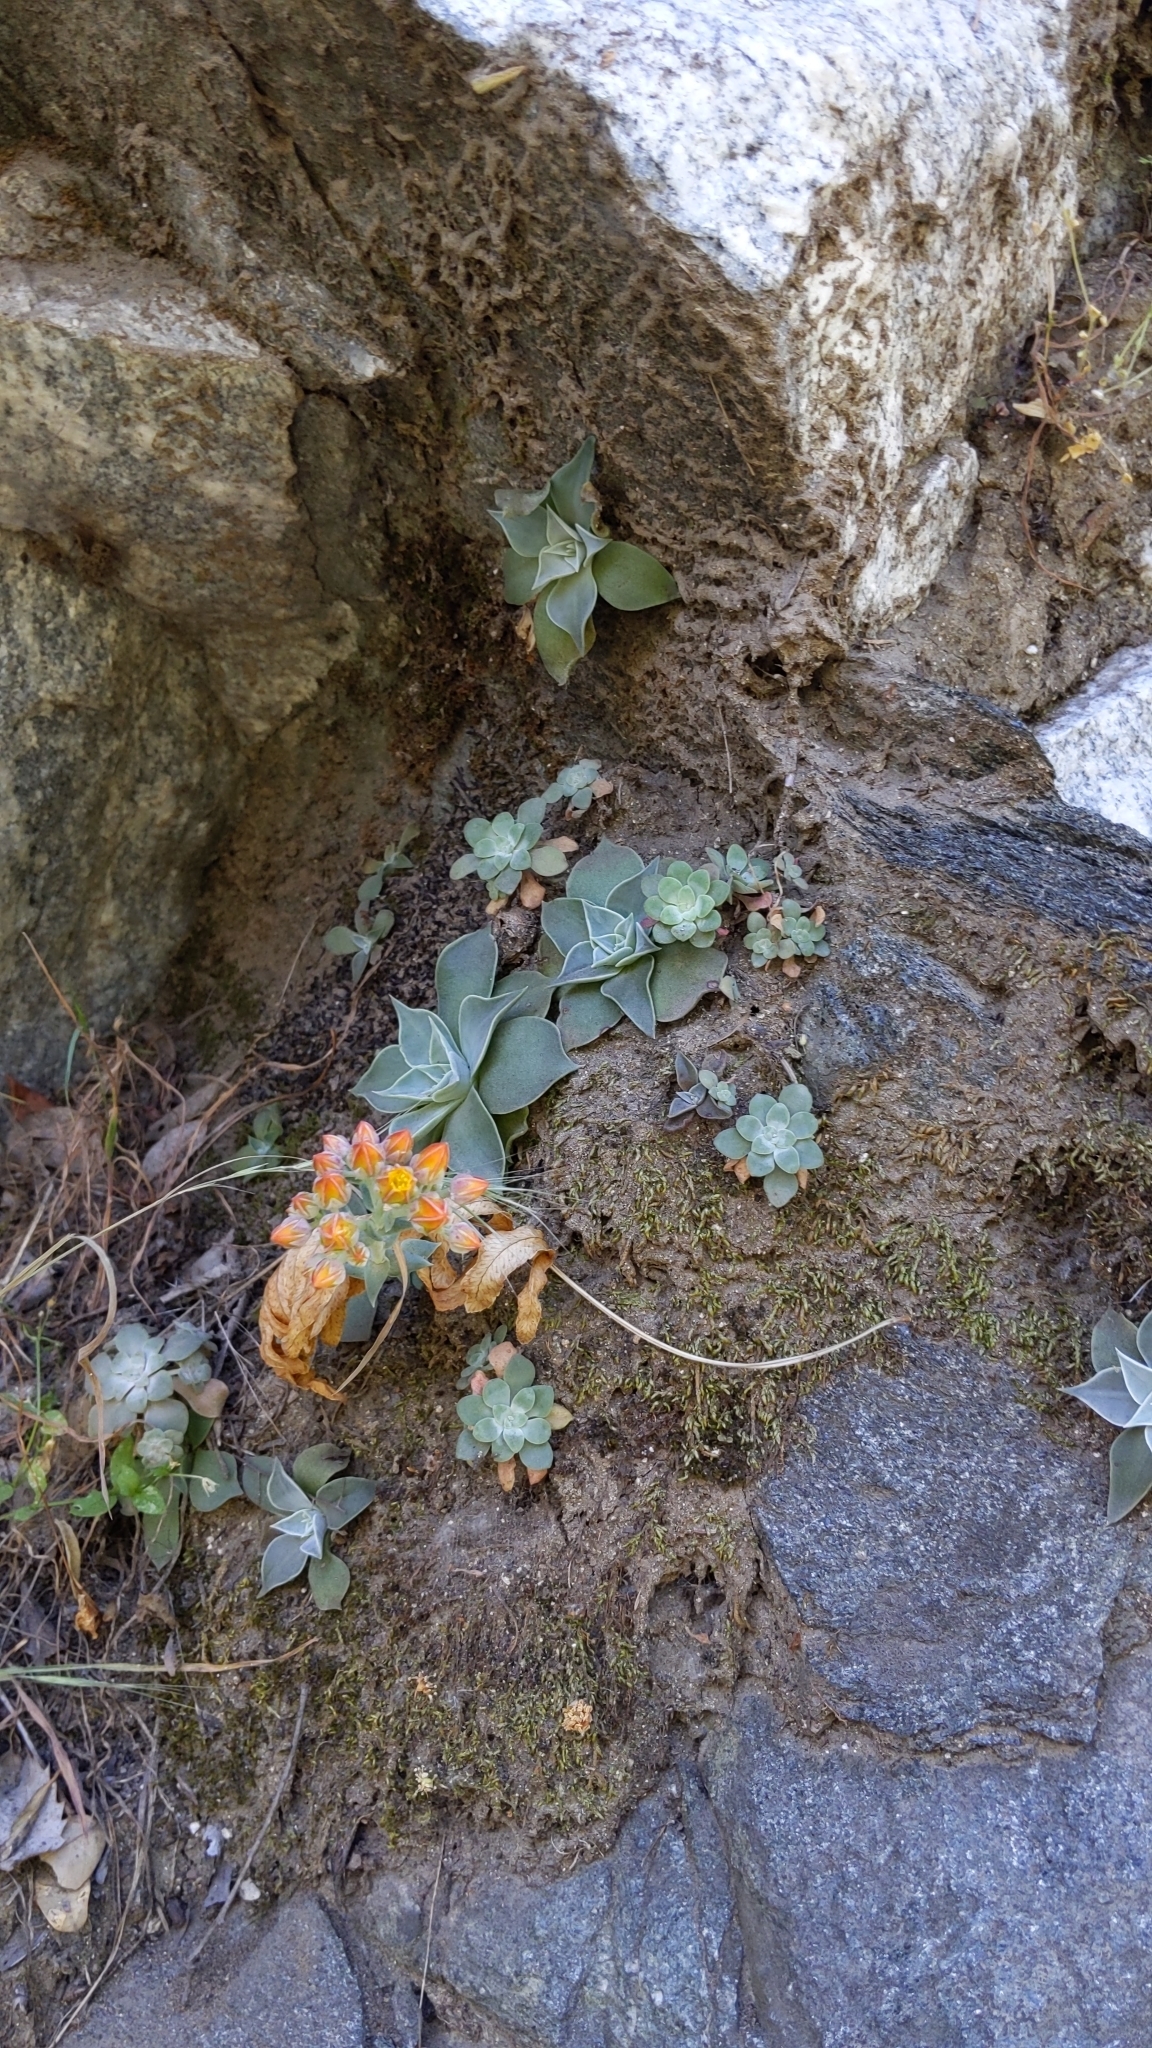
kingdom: Plantae
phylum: Tracheophyta
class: Magnoliopsida
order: Saxifragales
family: Crassulaceae
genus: Dudleya
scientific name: Dudleya cymosa
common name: Canyon dudleya
